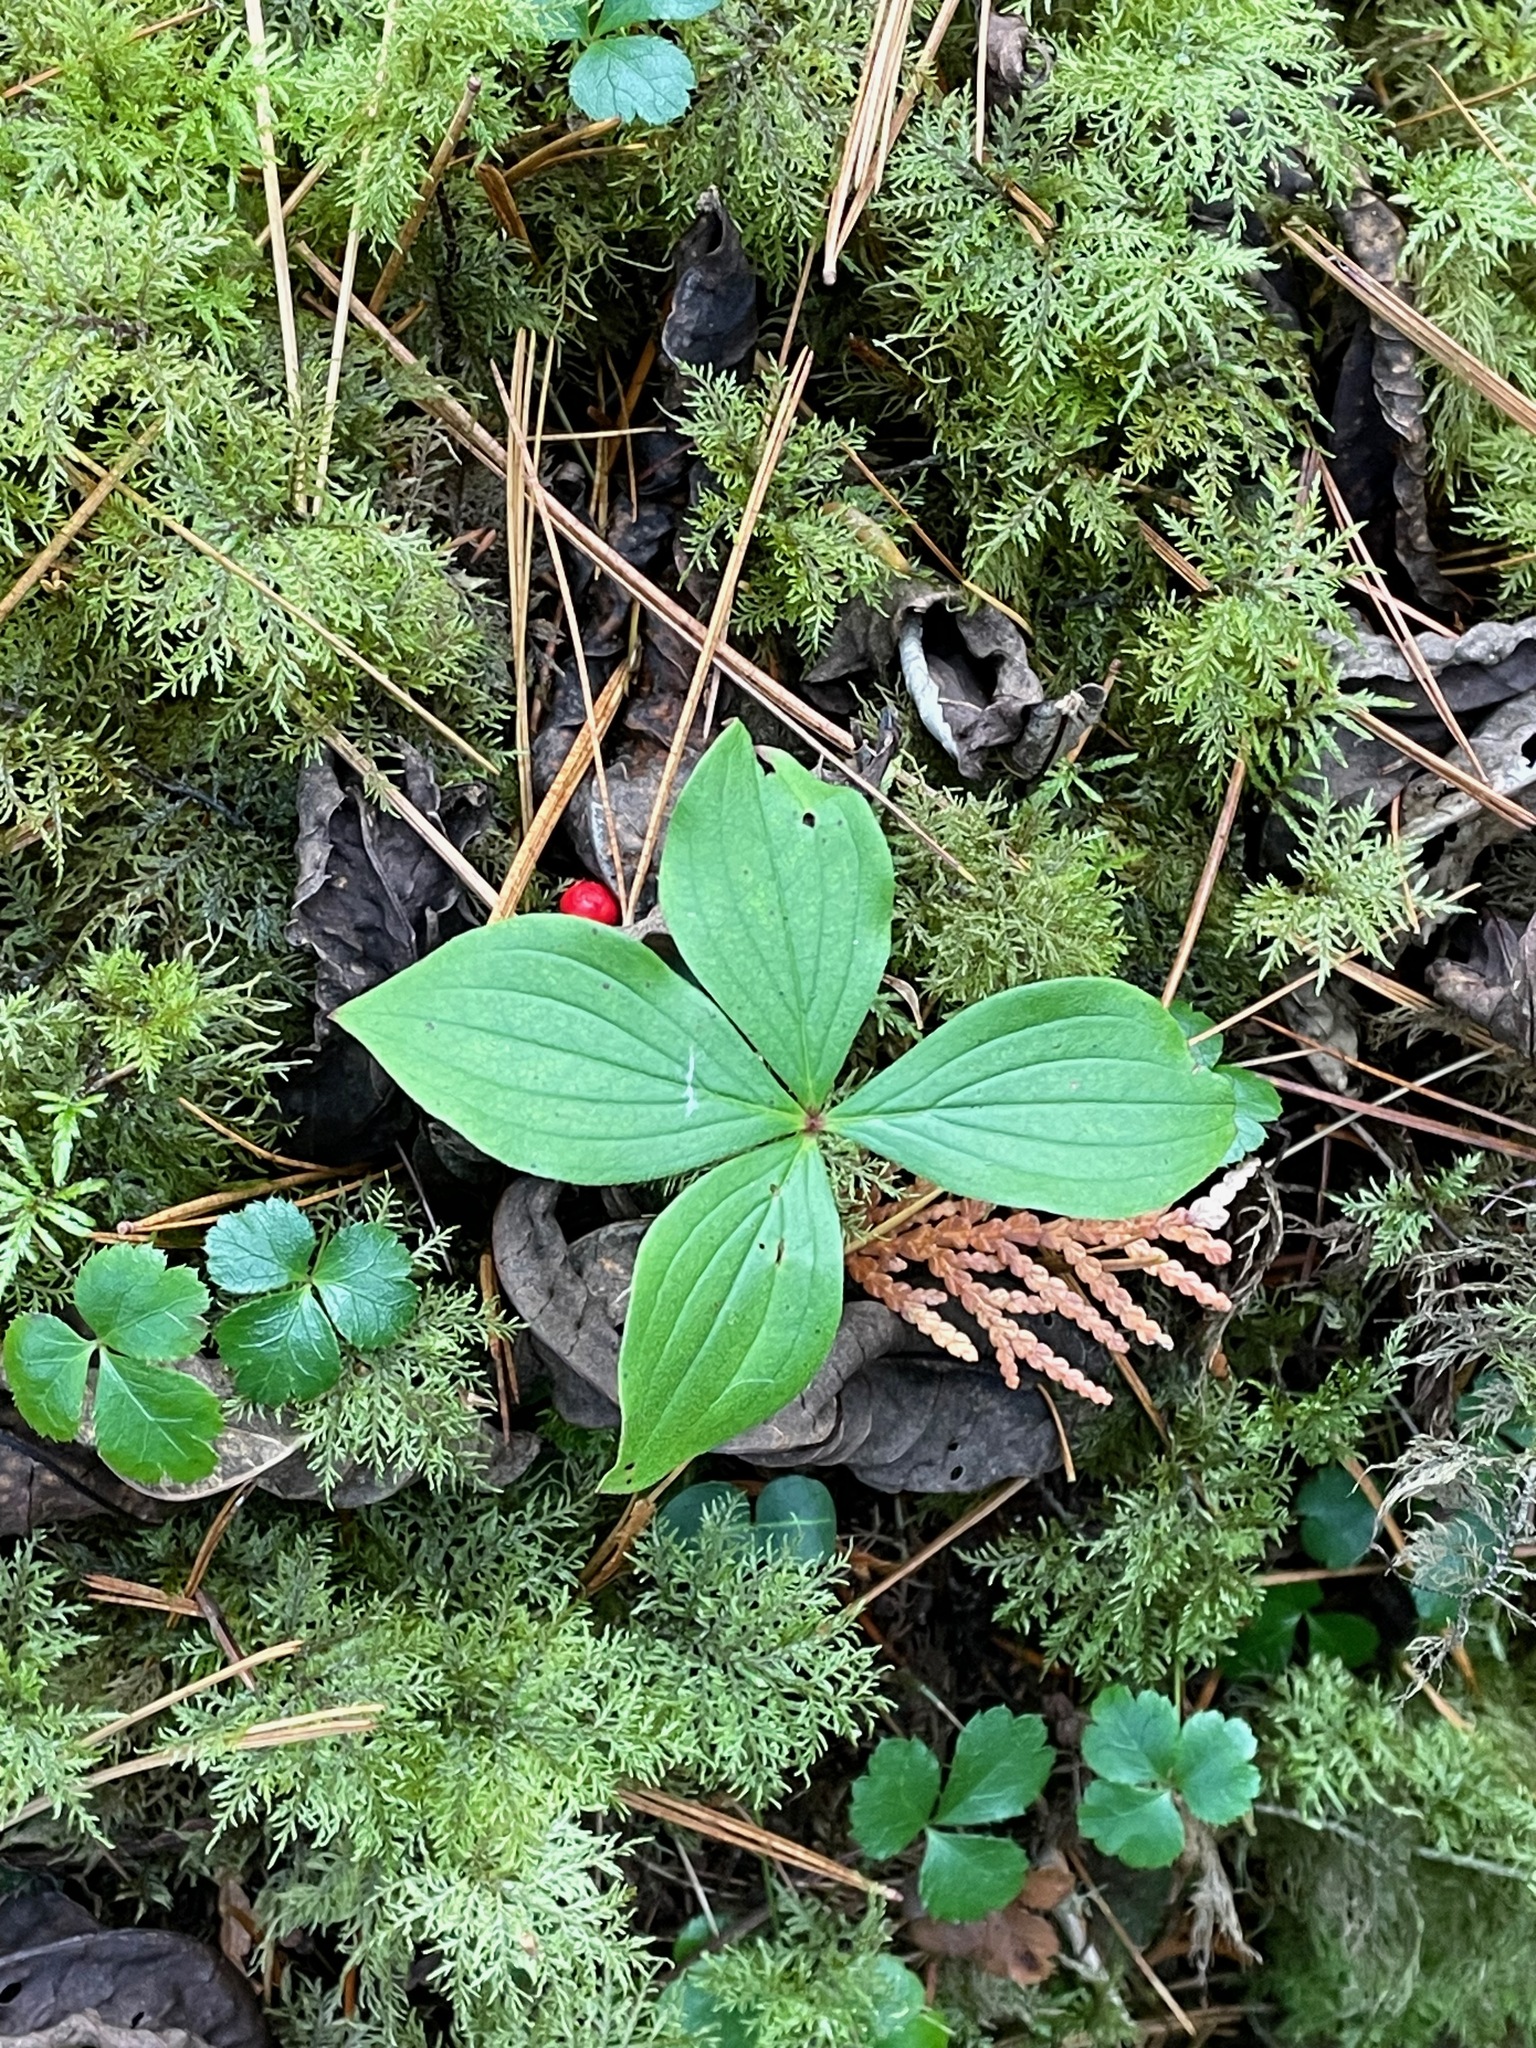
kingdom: Plantae
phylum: Tracheophyta
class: Magnoliopsida
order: Cornales
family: Cornaceae
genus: Cornus
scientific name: Cornus canadensis
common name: Creeping dogwood
